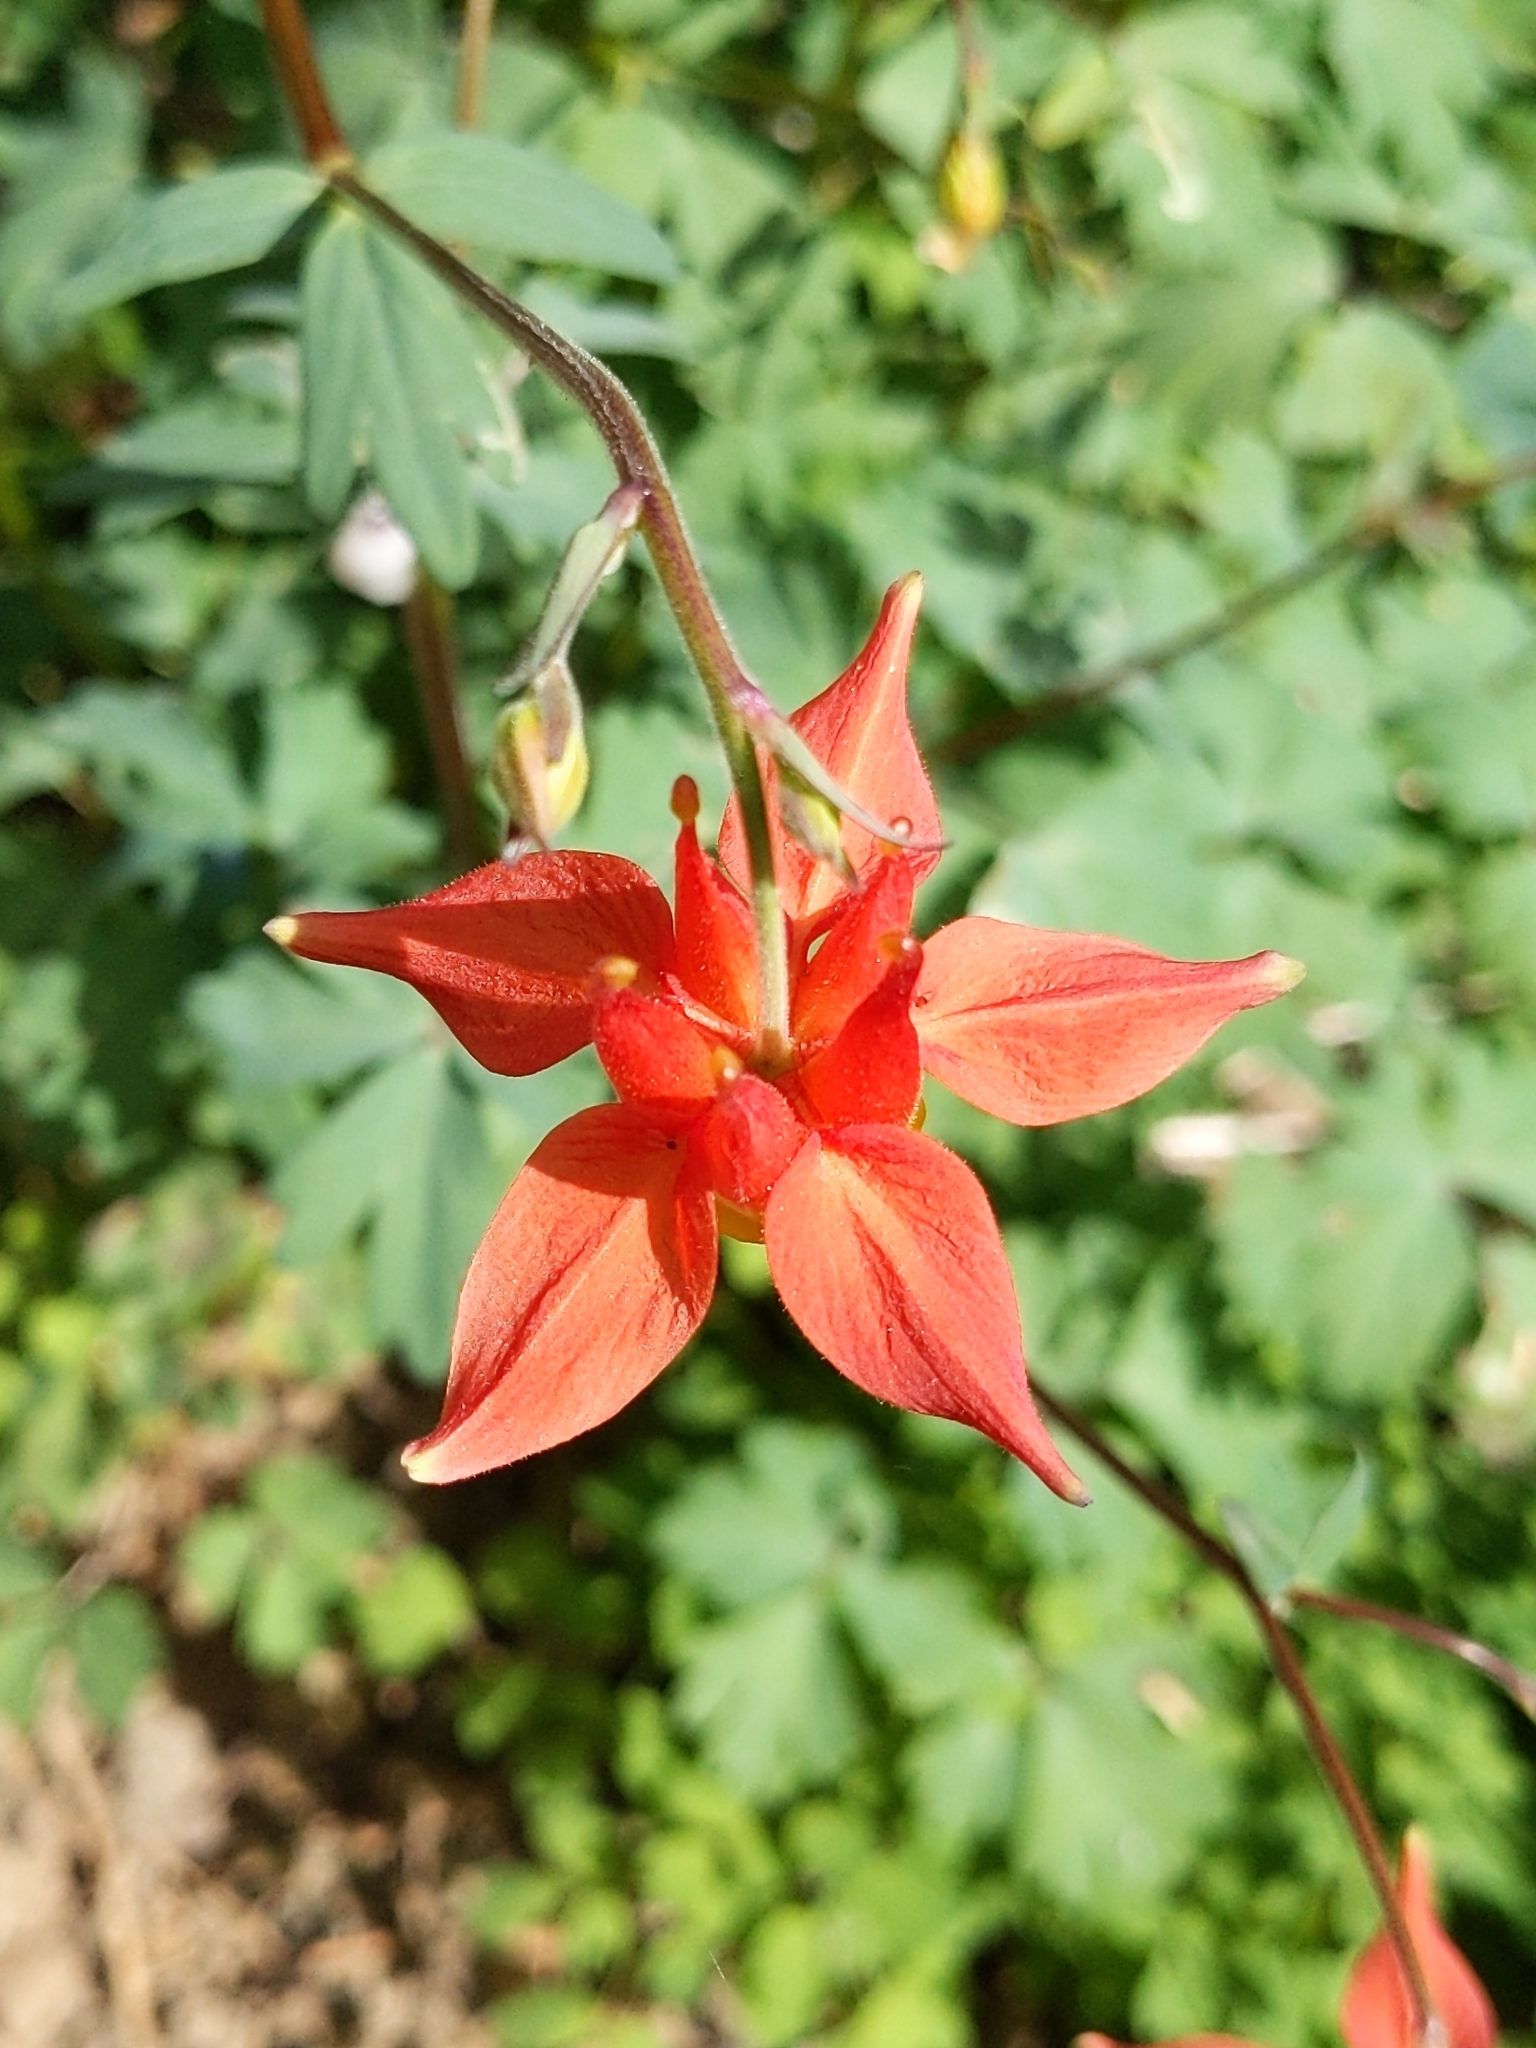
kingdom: Plantae
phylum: Tracheophyta
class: Magnoliopsida
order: Ranunculales
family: Ranunculaceae
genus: Aquilegia
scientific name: Aquilegia formosa
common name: Sitka columbine
